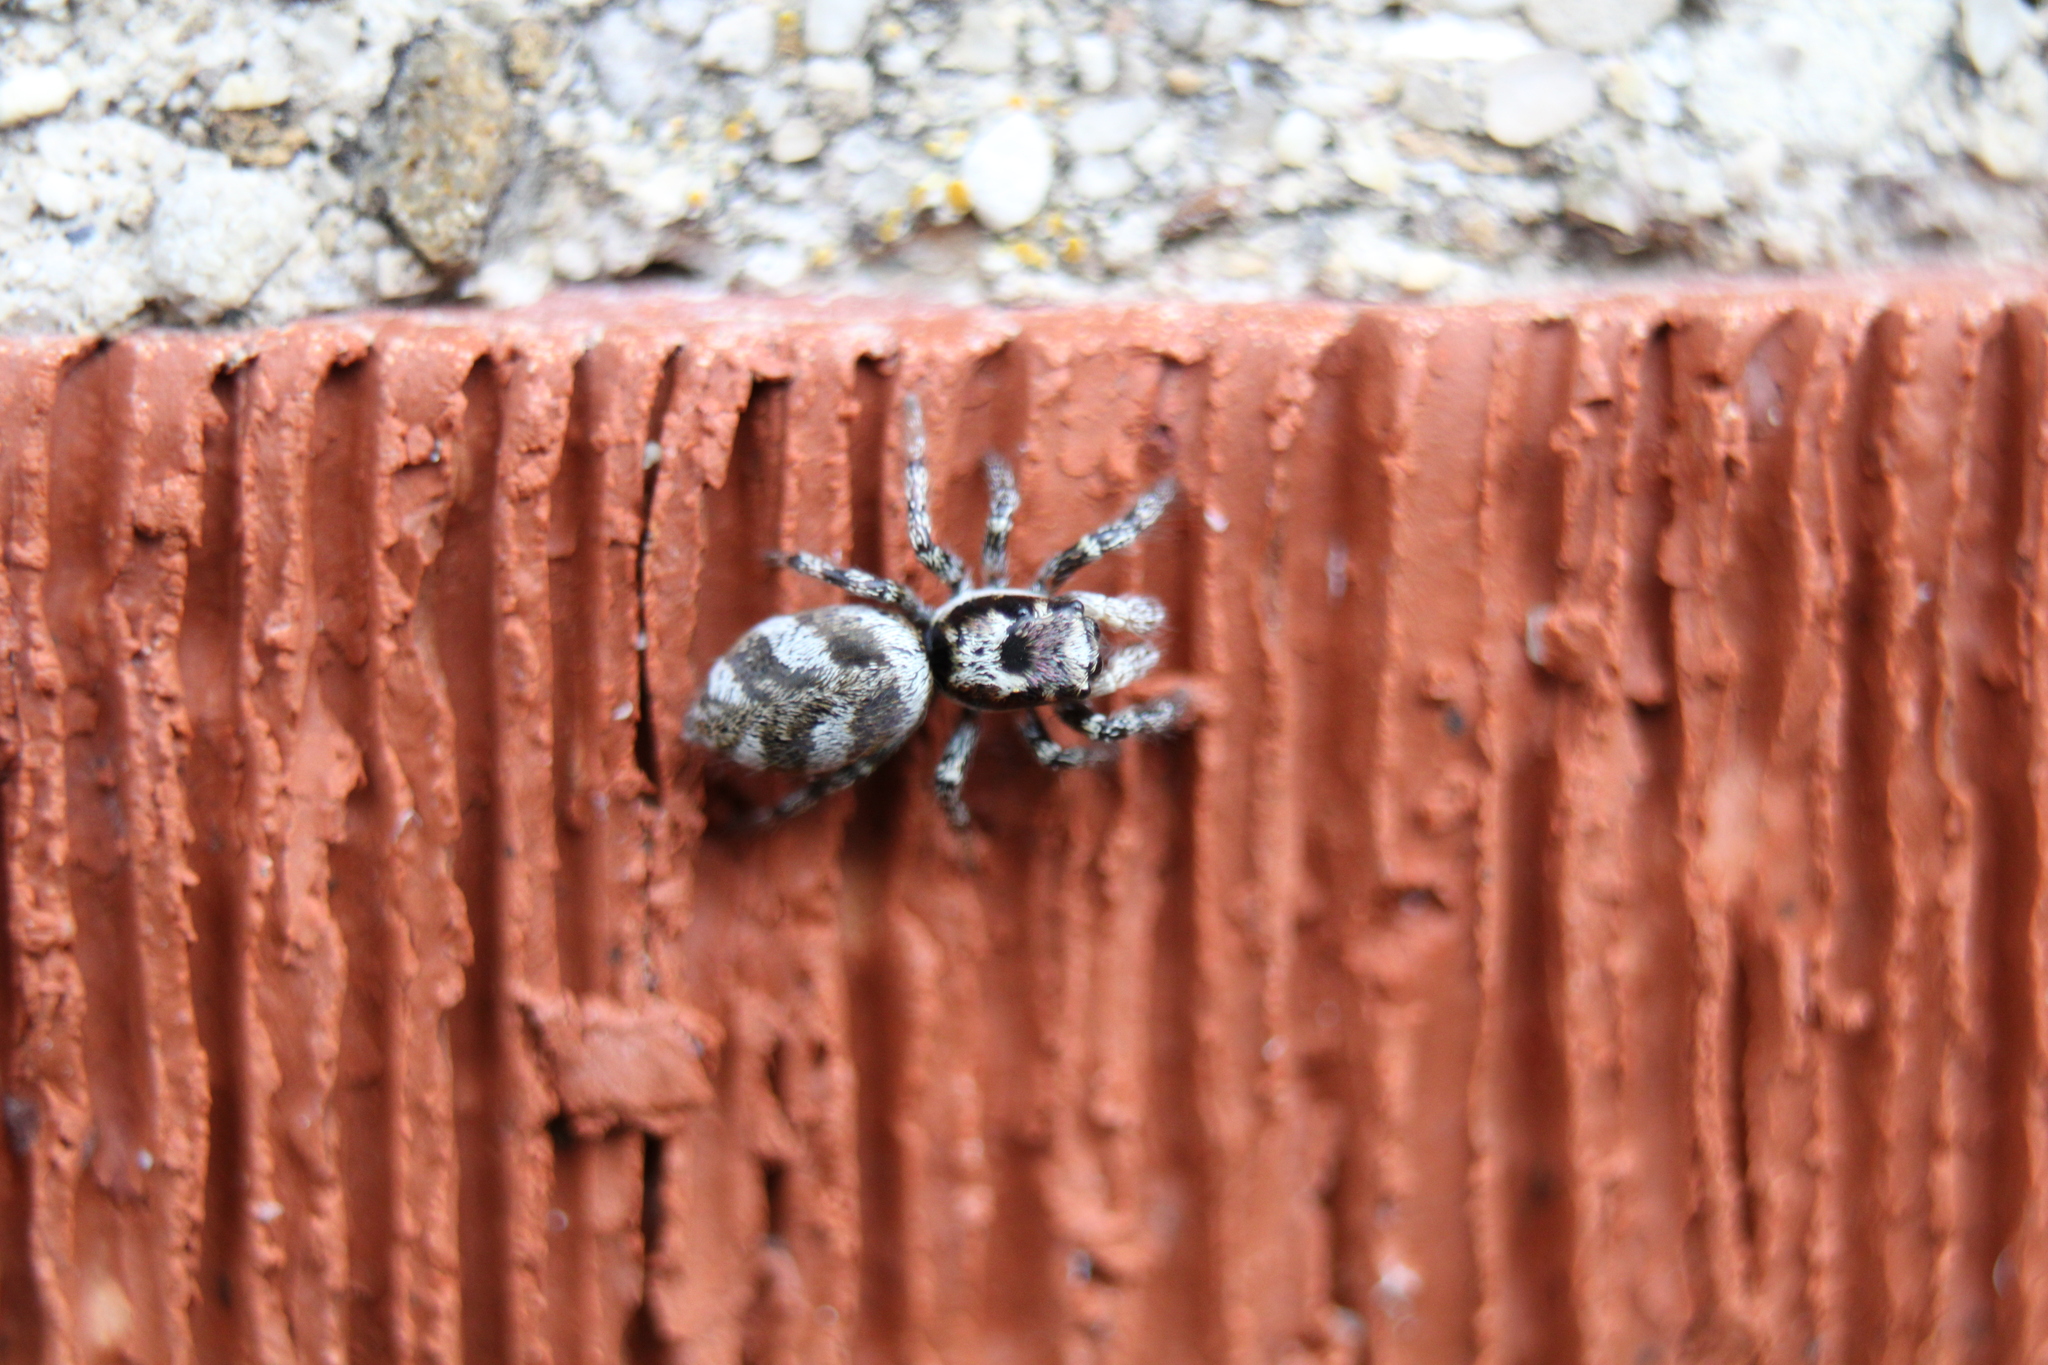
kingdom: Animalia
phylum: Arthropoda
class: Arachnida
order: Araneae
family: Salticidae
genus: Salticus
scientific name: Salticus scenicus
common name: Zebra jumper
